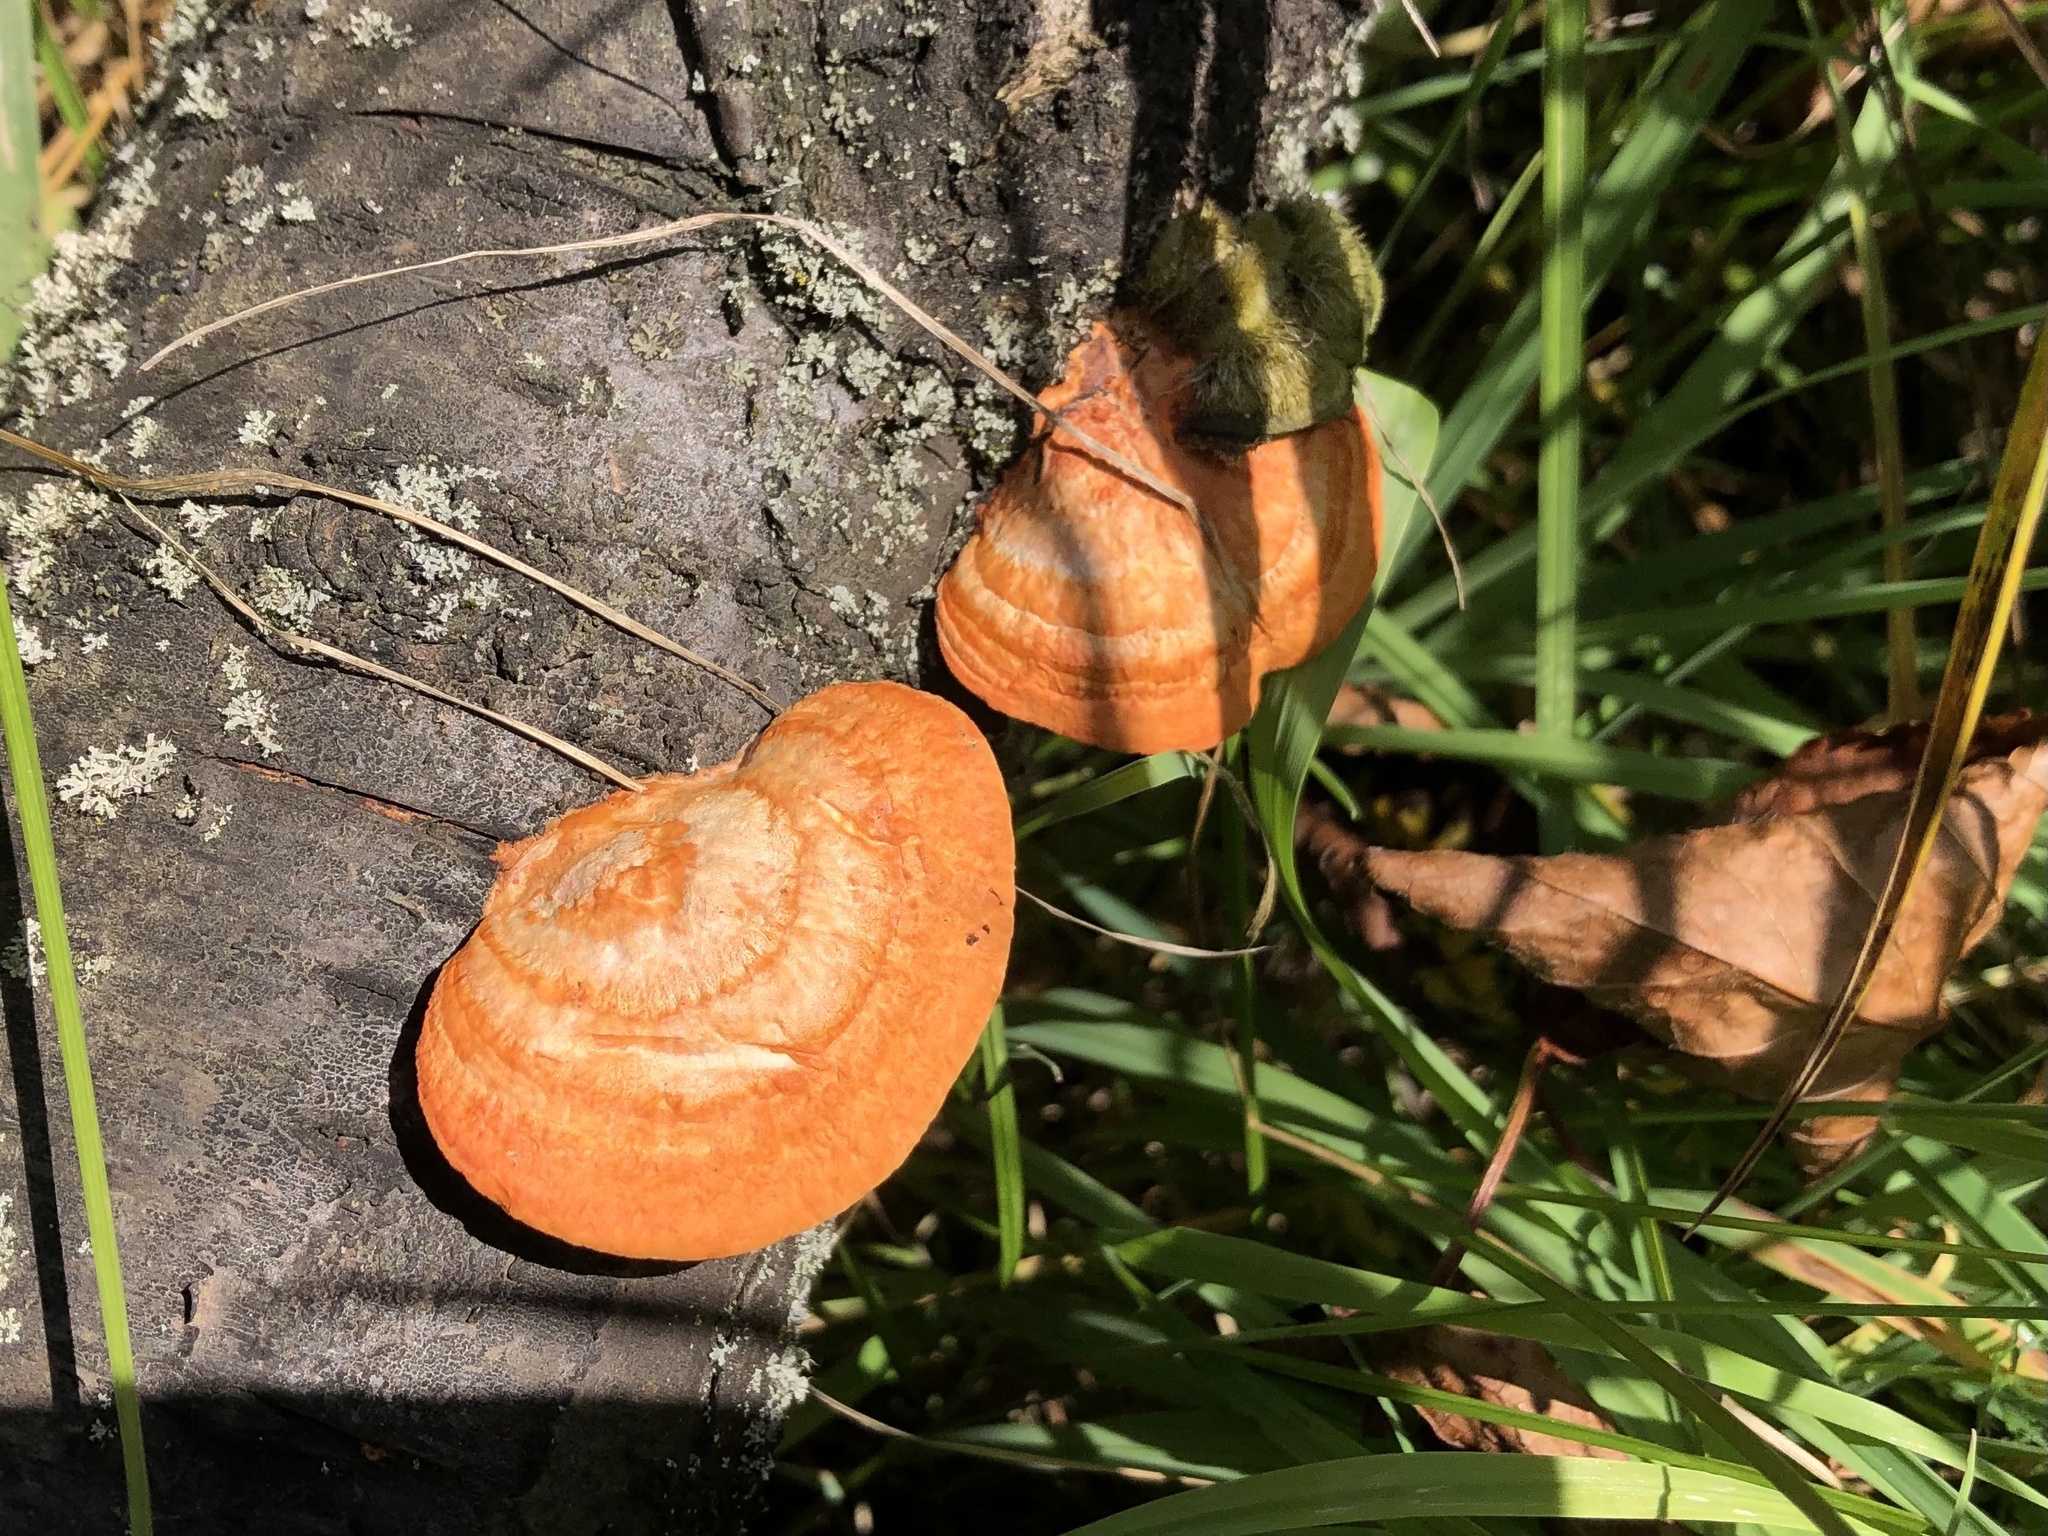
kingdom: Fungi
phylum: Basidiomycota
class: Agaricomycetes
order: Polyporales
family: Polyporaceae
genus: Trametes
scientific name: Trametes cinnabarina
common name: Northern cinnabar polypore
